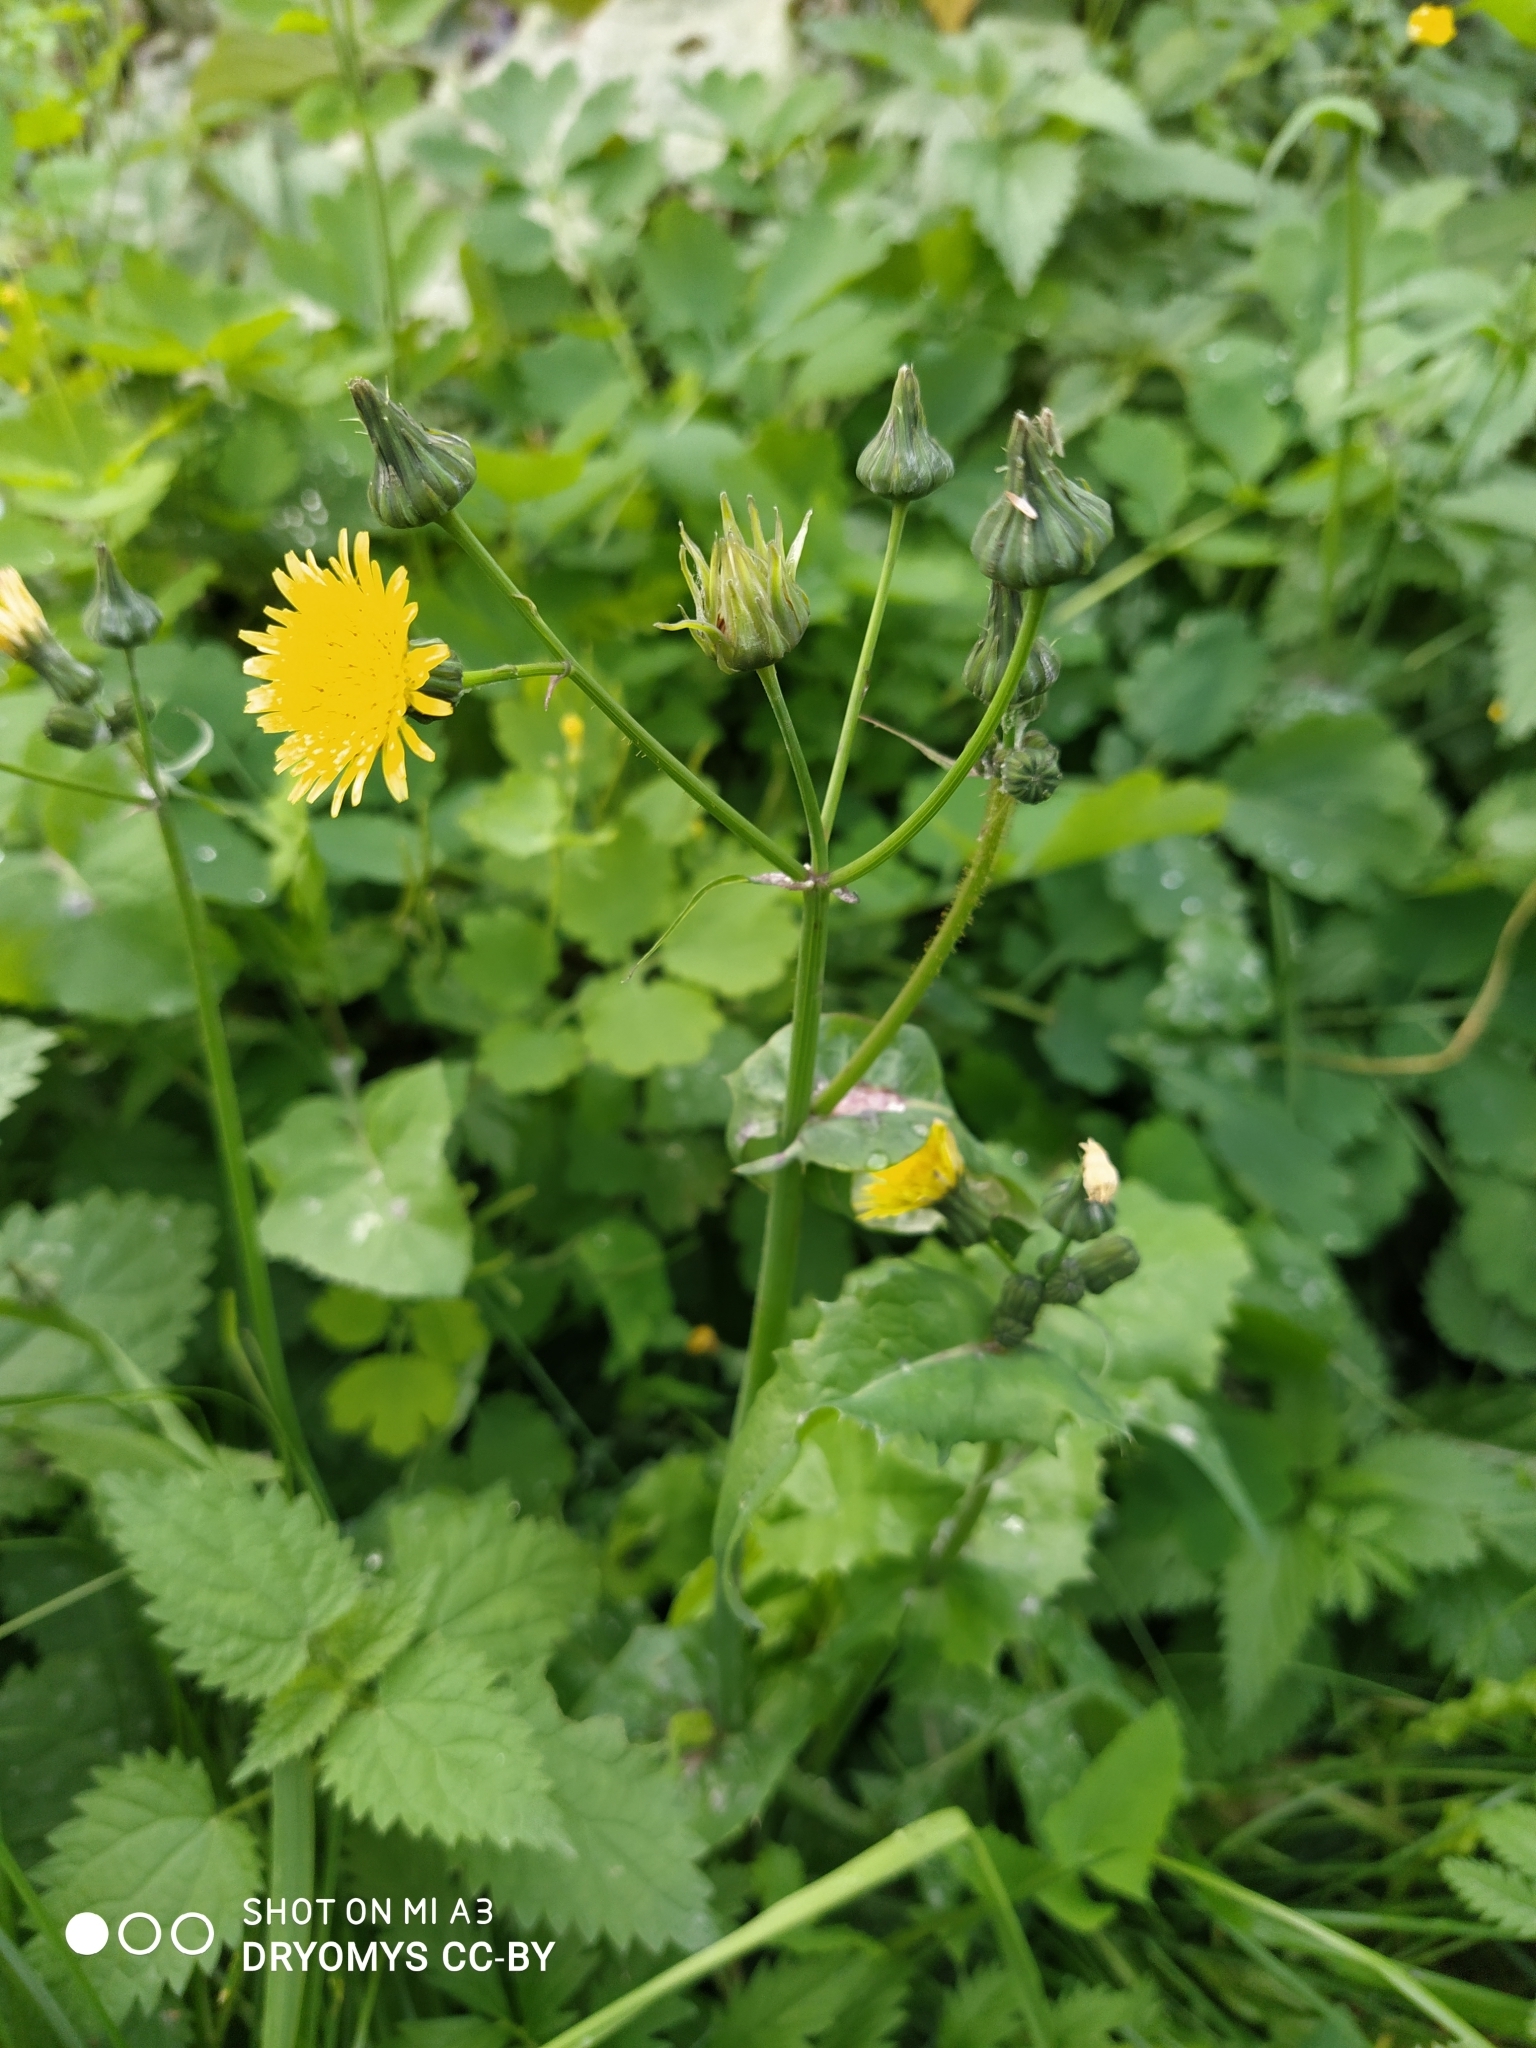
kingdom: Plantae
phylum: Tracheophyta
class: Magnoliopsida
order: Asterales
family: Asteraceae
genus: Sonchus
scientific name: Sonchus oleraceus
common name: Common sowthistle
